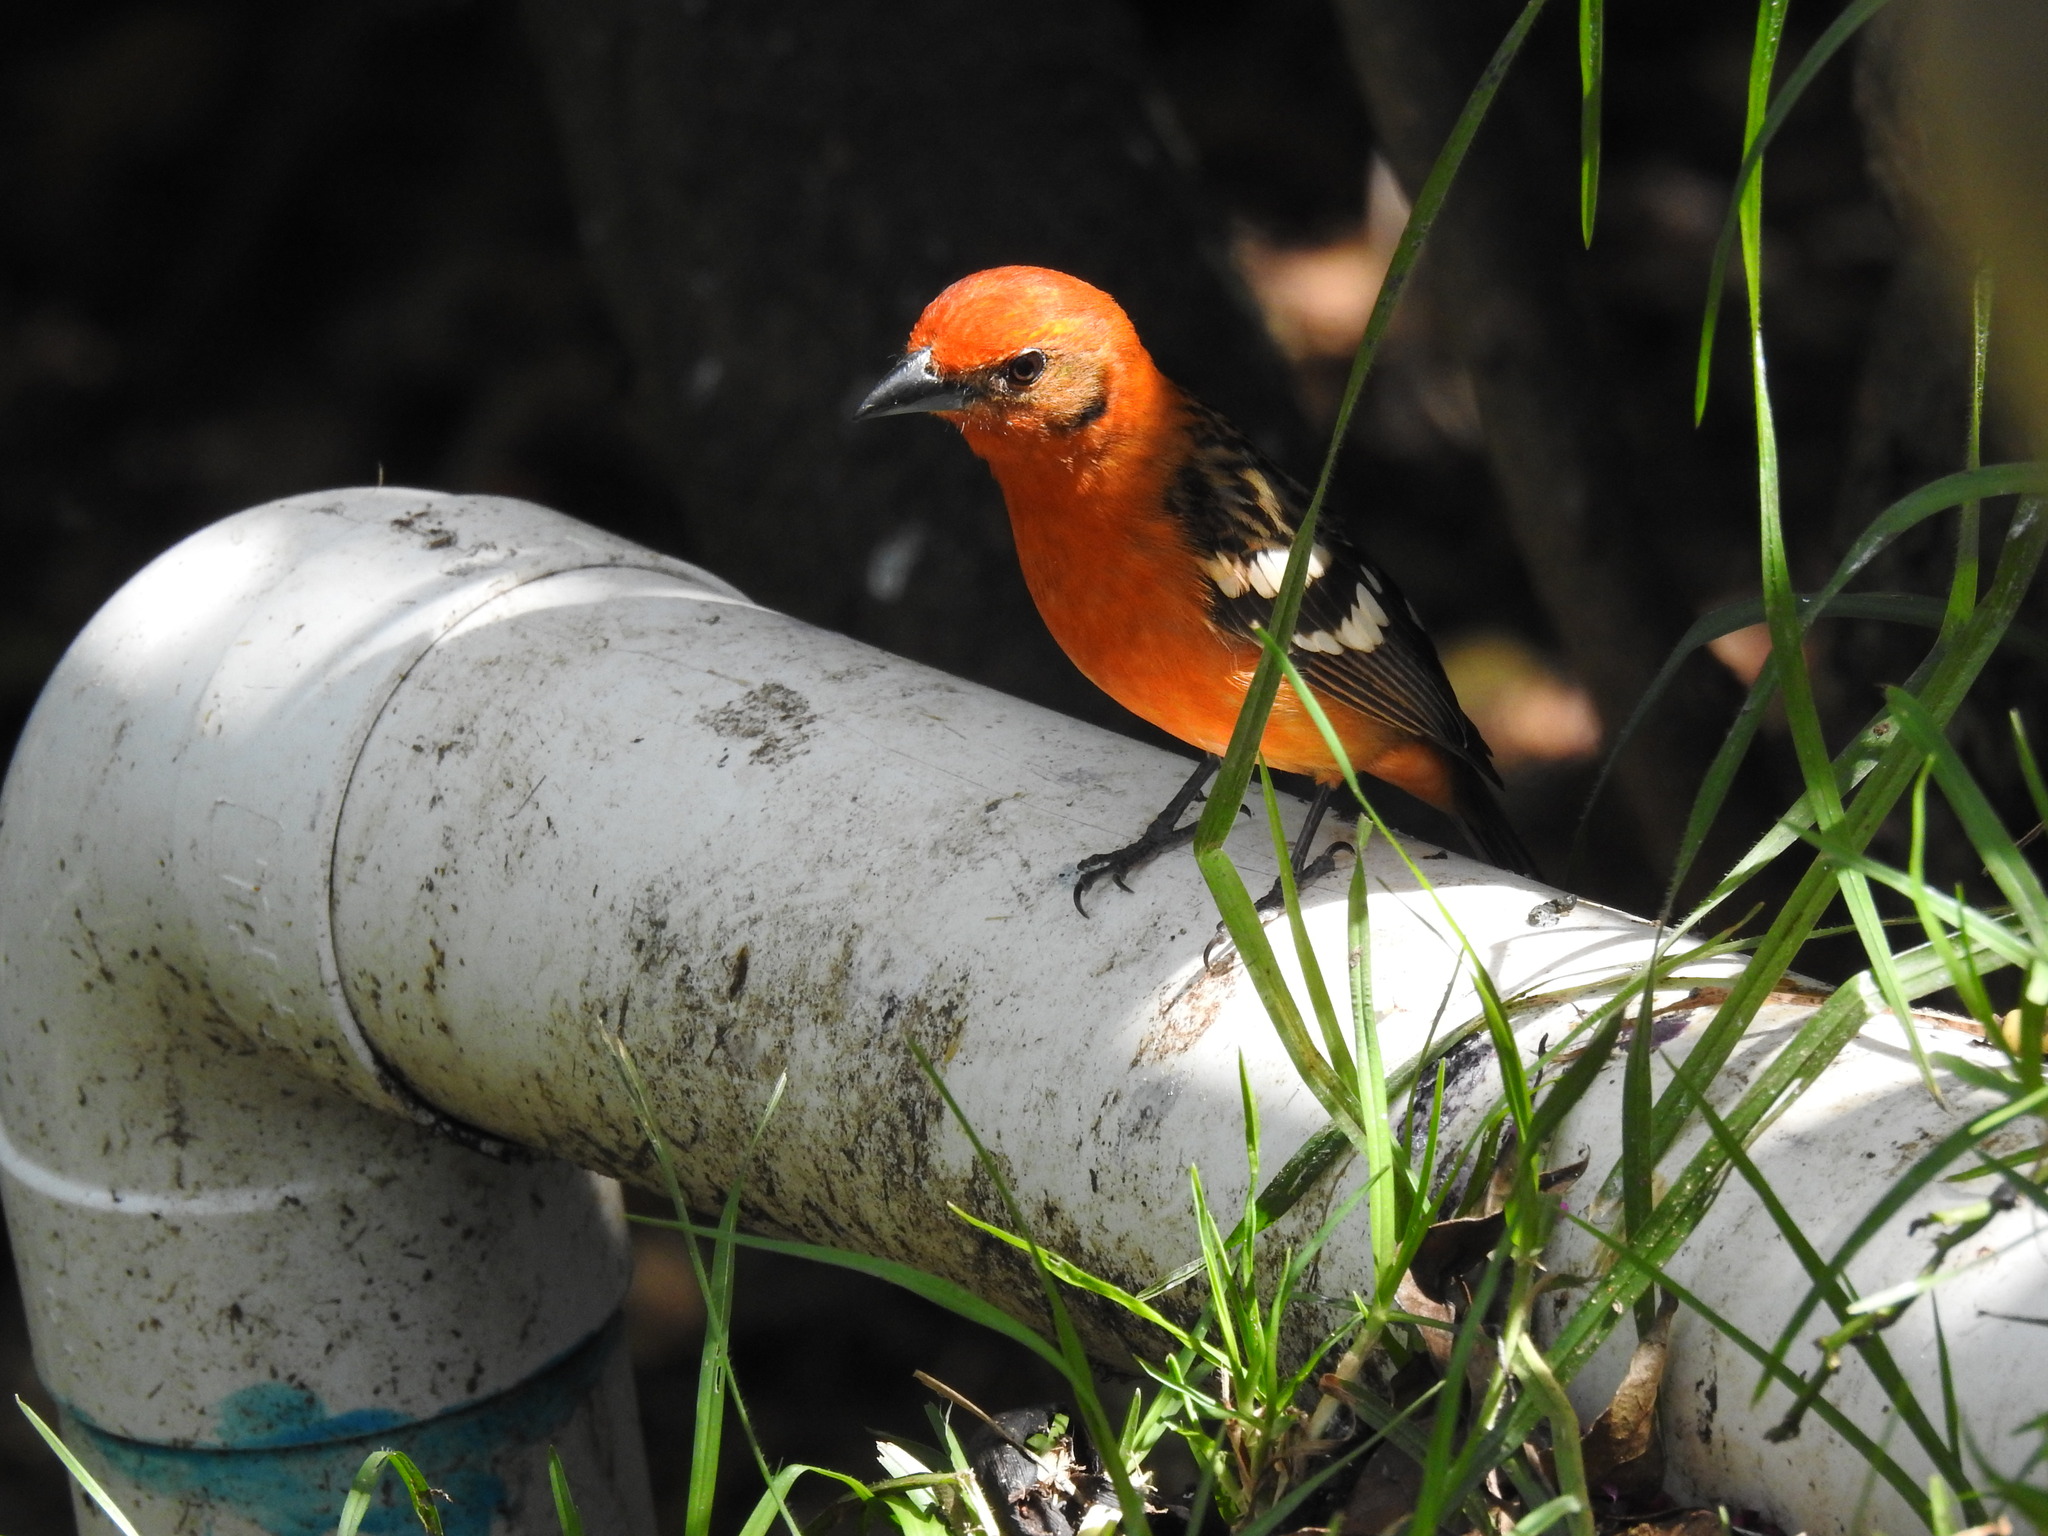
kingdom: Animalia
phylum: Chordata
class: Aves
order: Passeriformes
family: Cardinalidae
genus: Piranga
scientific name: Piranga bidentata
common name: Flame-colored tanager
